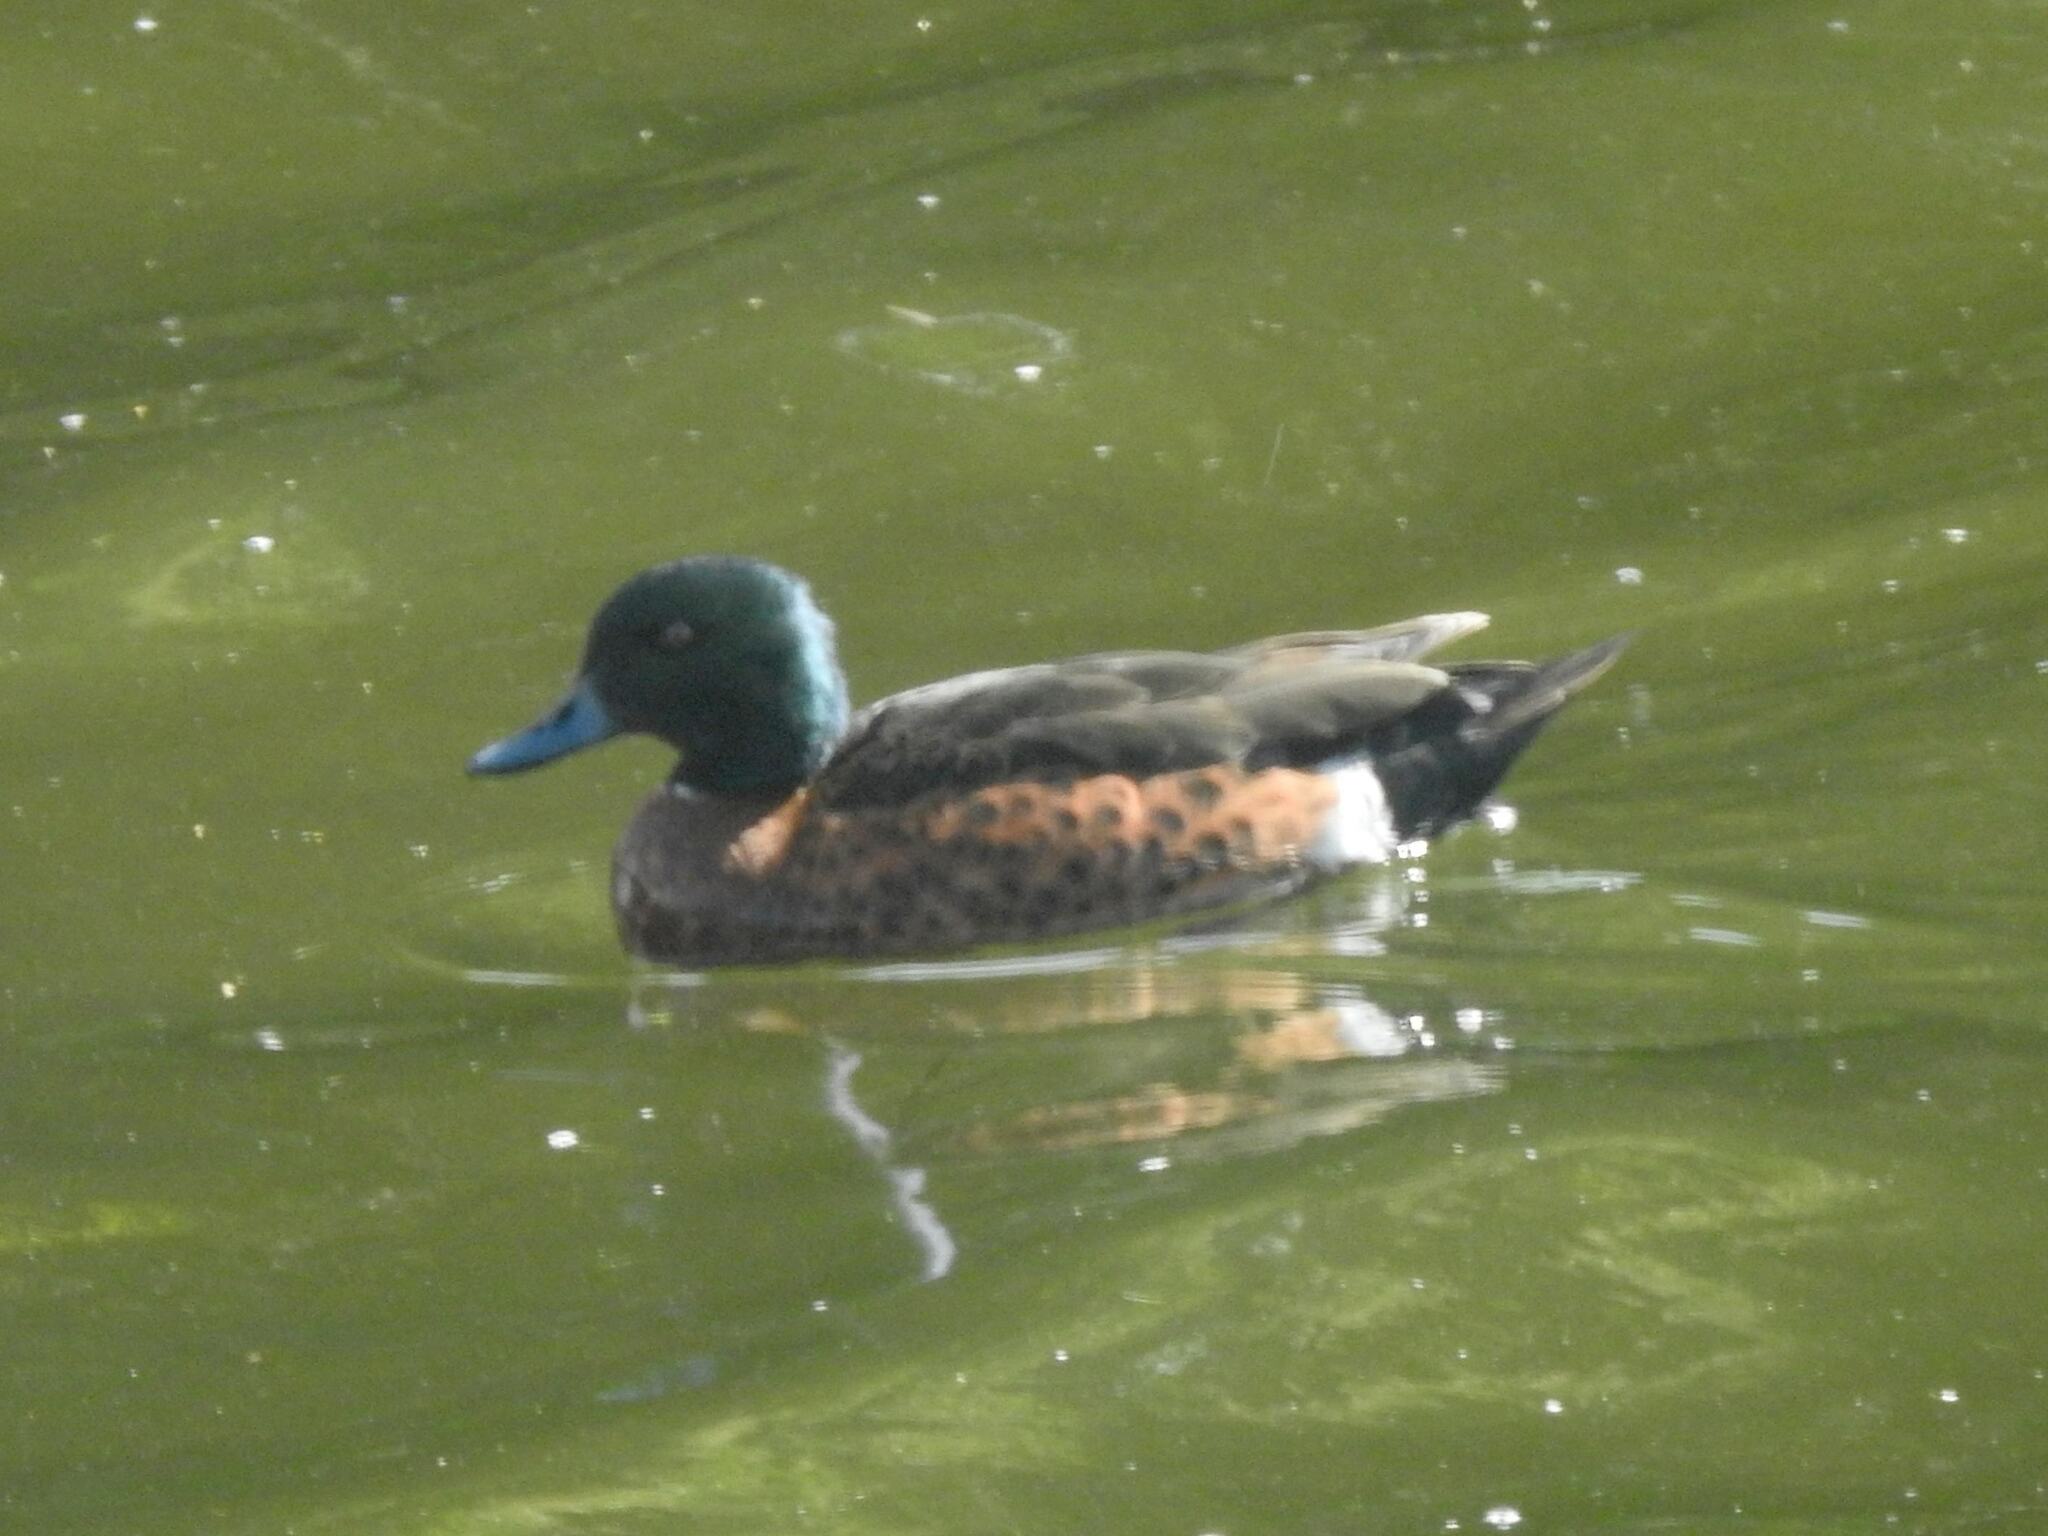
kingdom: Animalia
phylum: Chordata
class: Aves
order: Anseriformes
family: Anatidae
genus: Anas
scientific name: Anas castanea
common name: Chestnut teal
